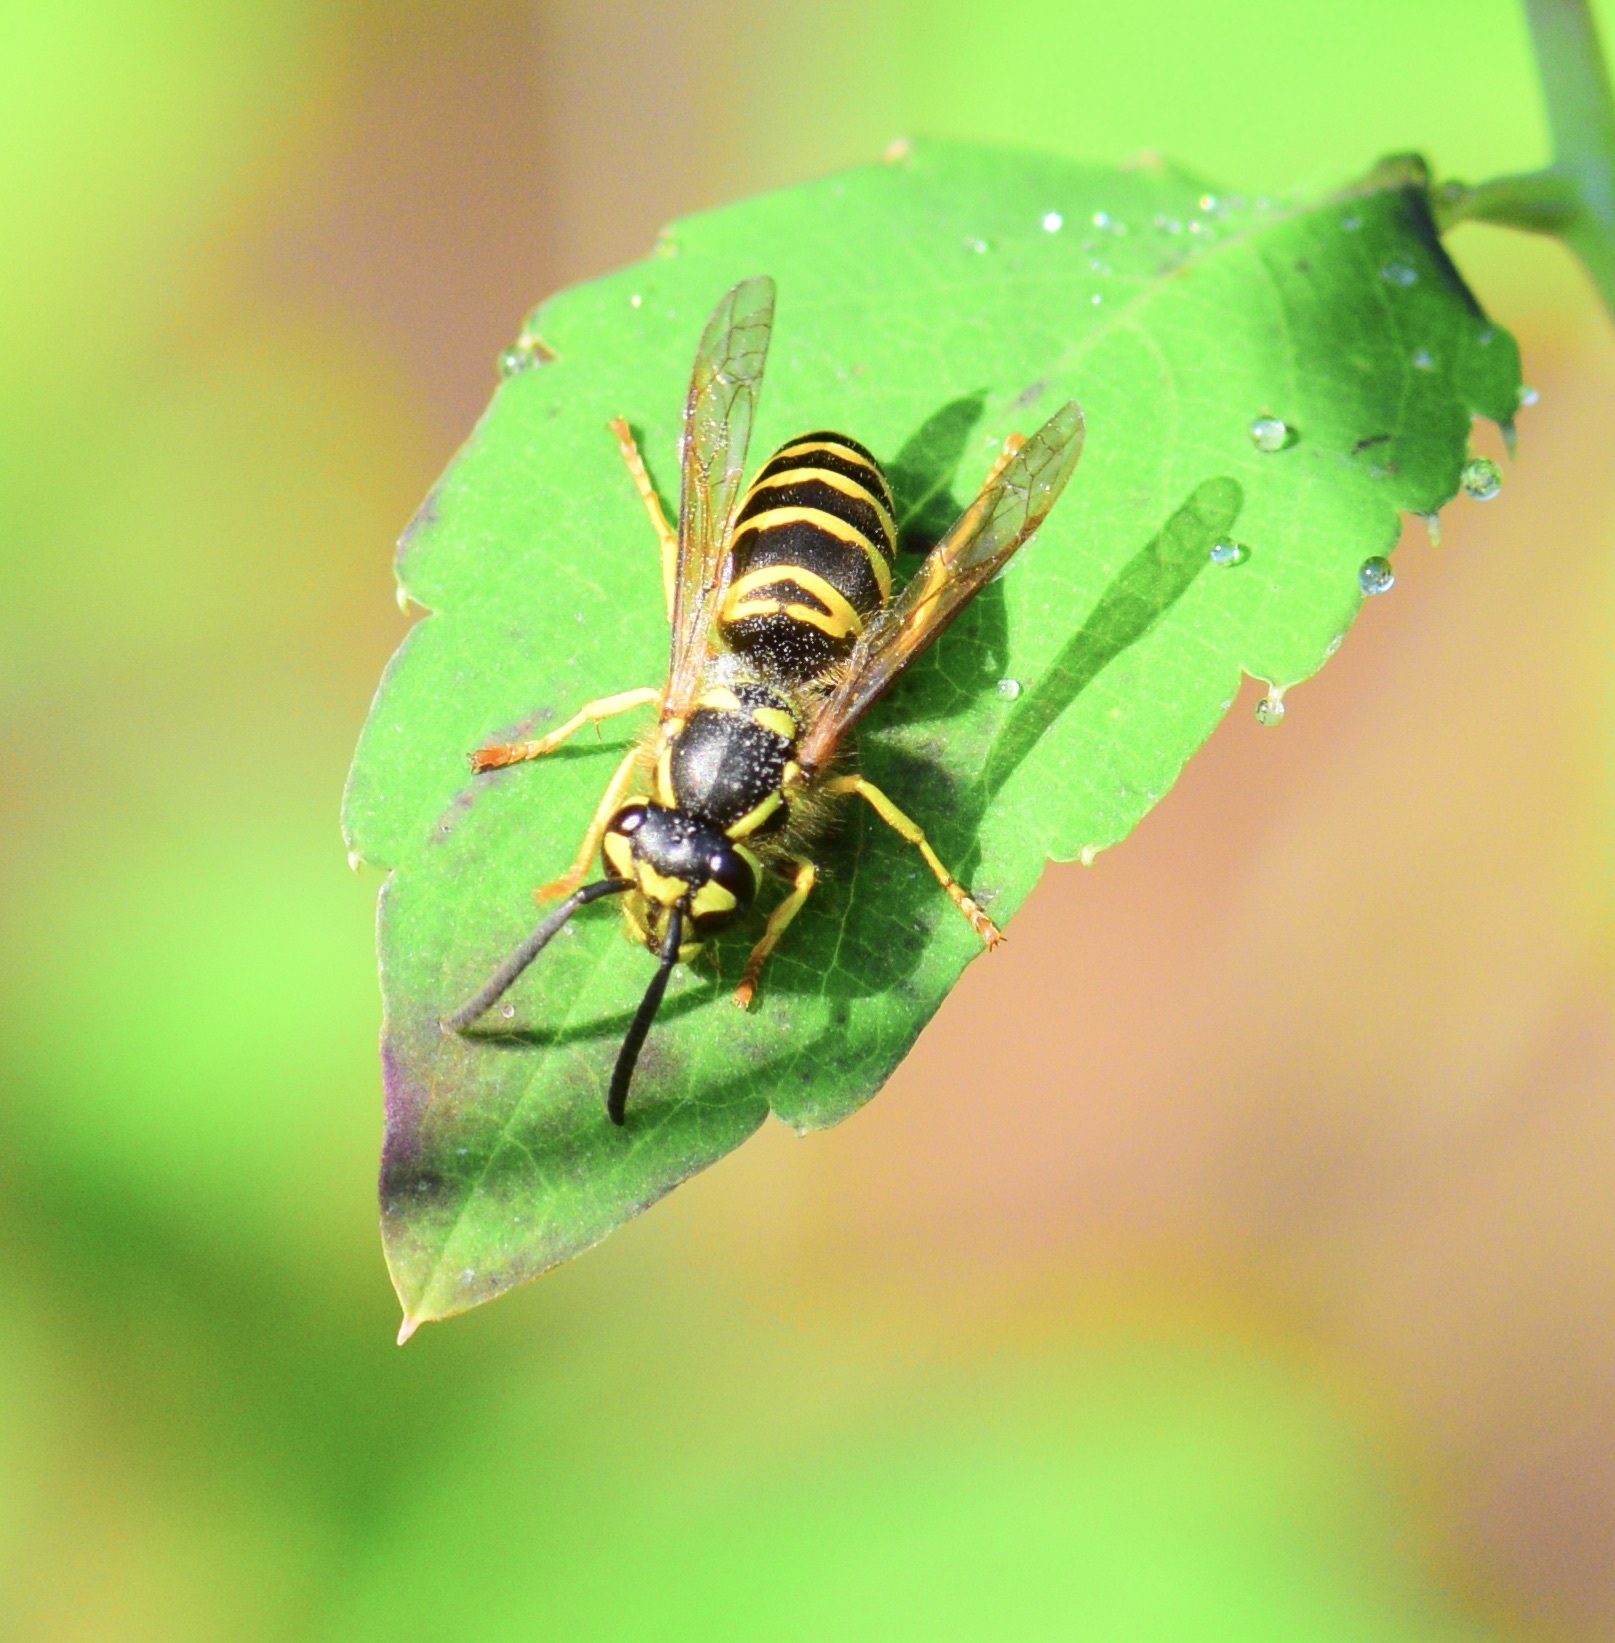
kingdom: Animalia
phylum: Arthropoda
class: Insecta
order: Hymenoptera
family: Vespidae
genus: Vespula
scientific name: Vespula maculifrons
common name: Eastern yellowjacket
